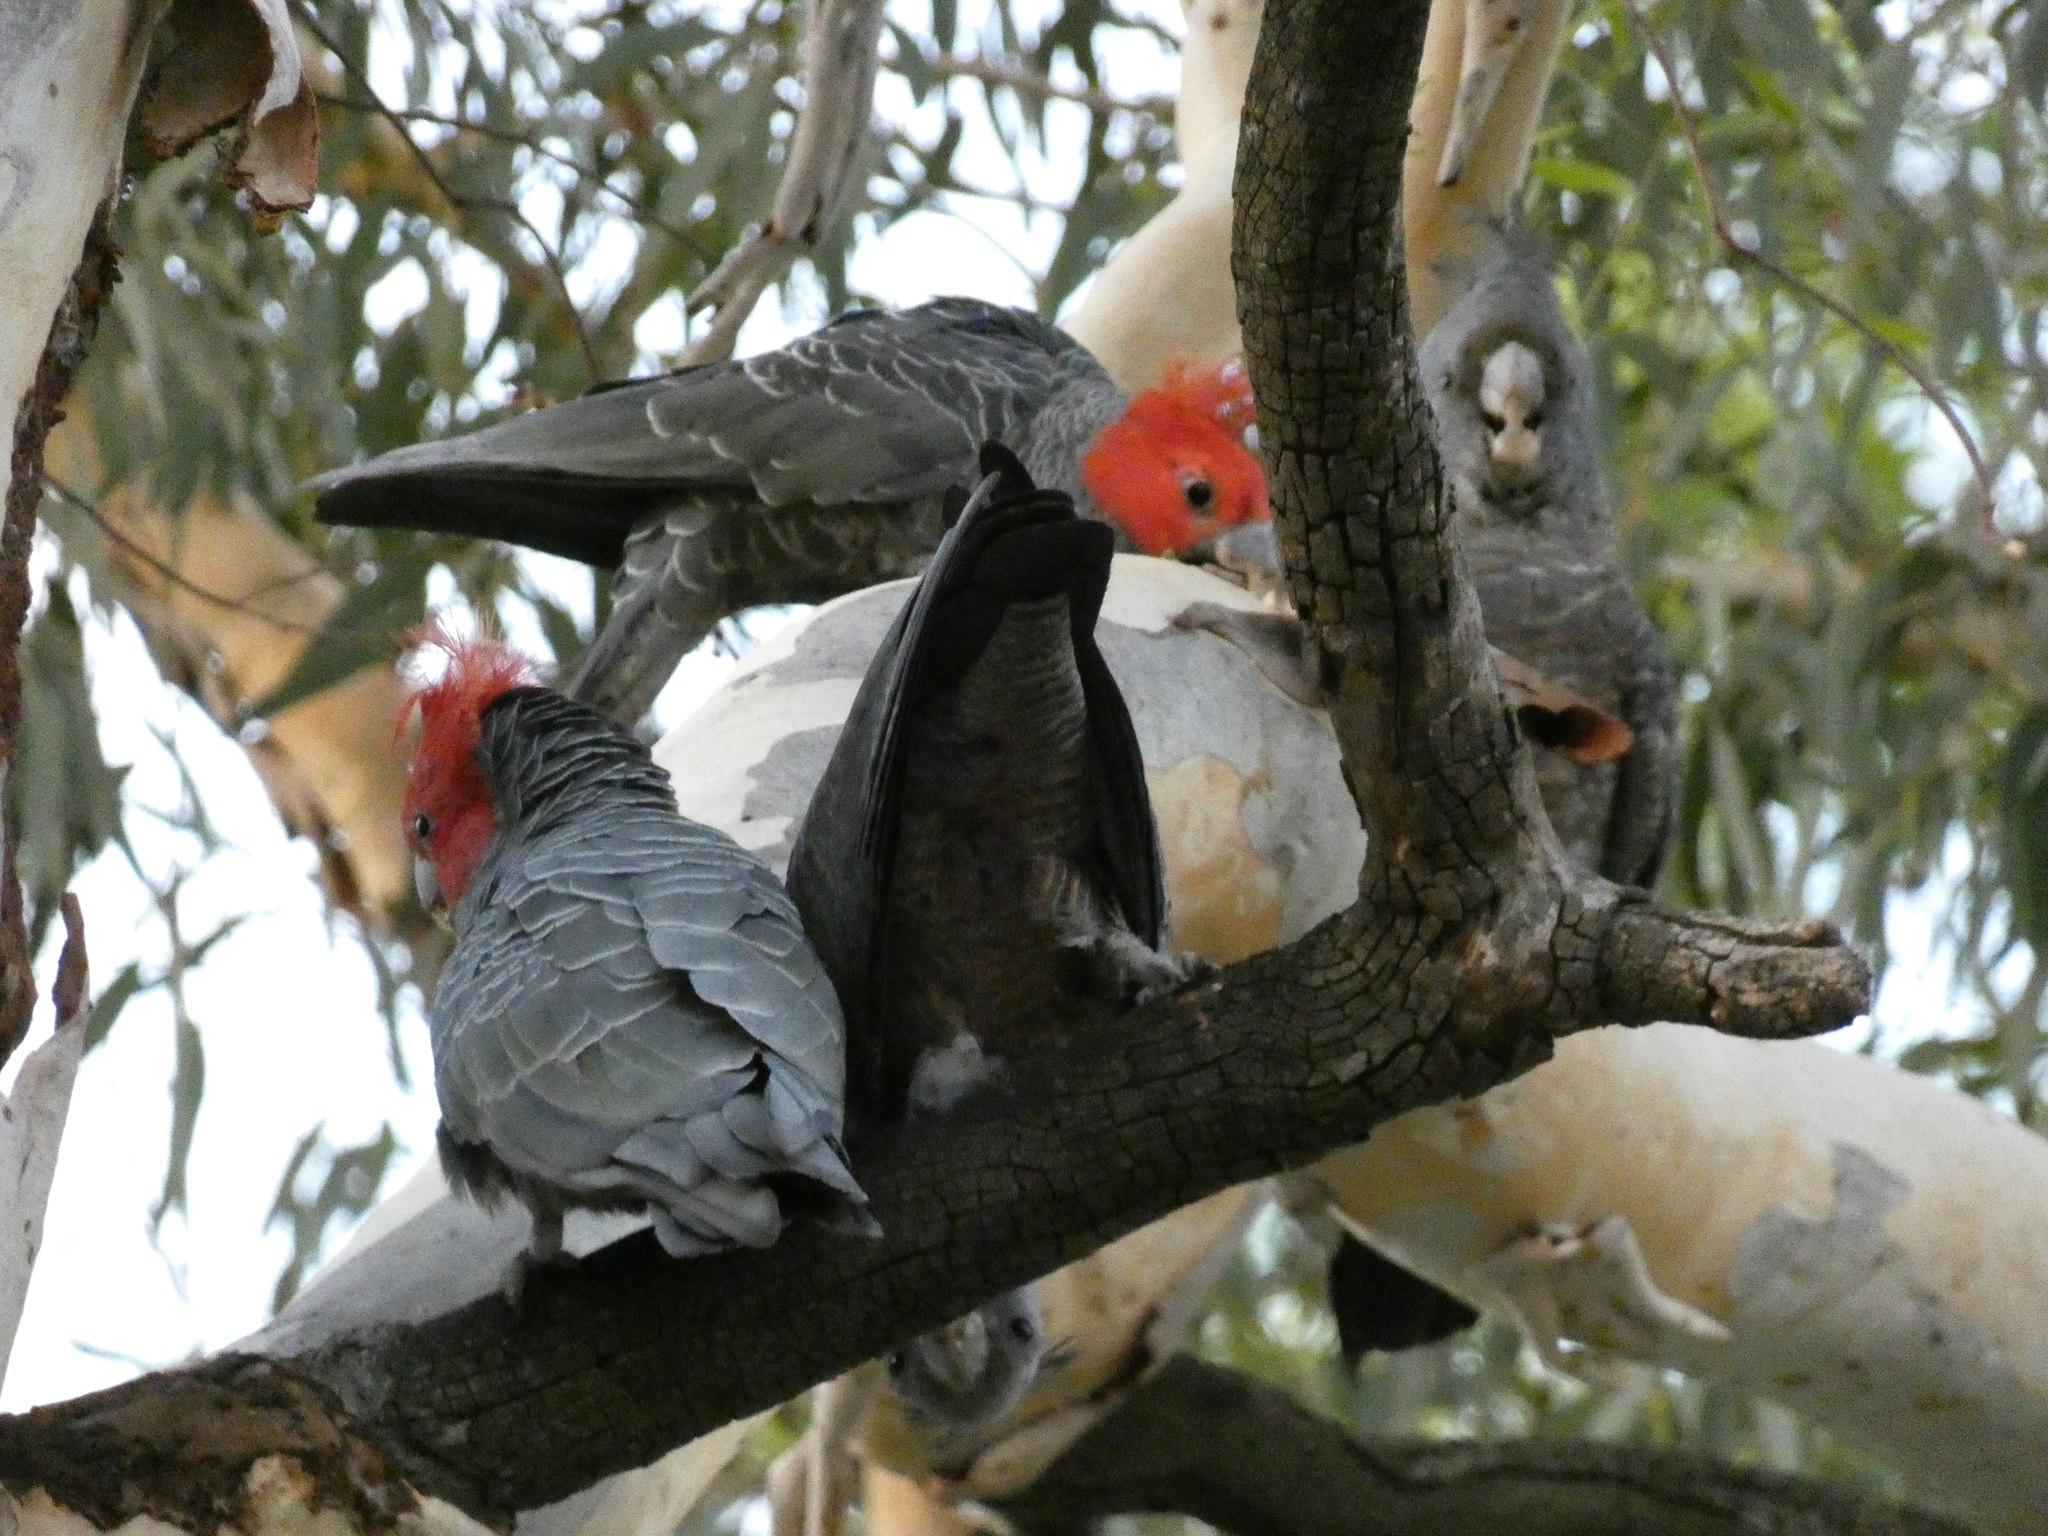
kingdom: Animalia
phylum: Chordata
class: Aves
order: Psittaciformes
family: Psittacidae
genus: Callocephalon
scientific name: Callocephalon fimbriatum
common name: Gang-gang cockatoo
